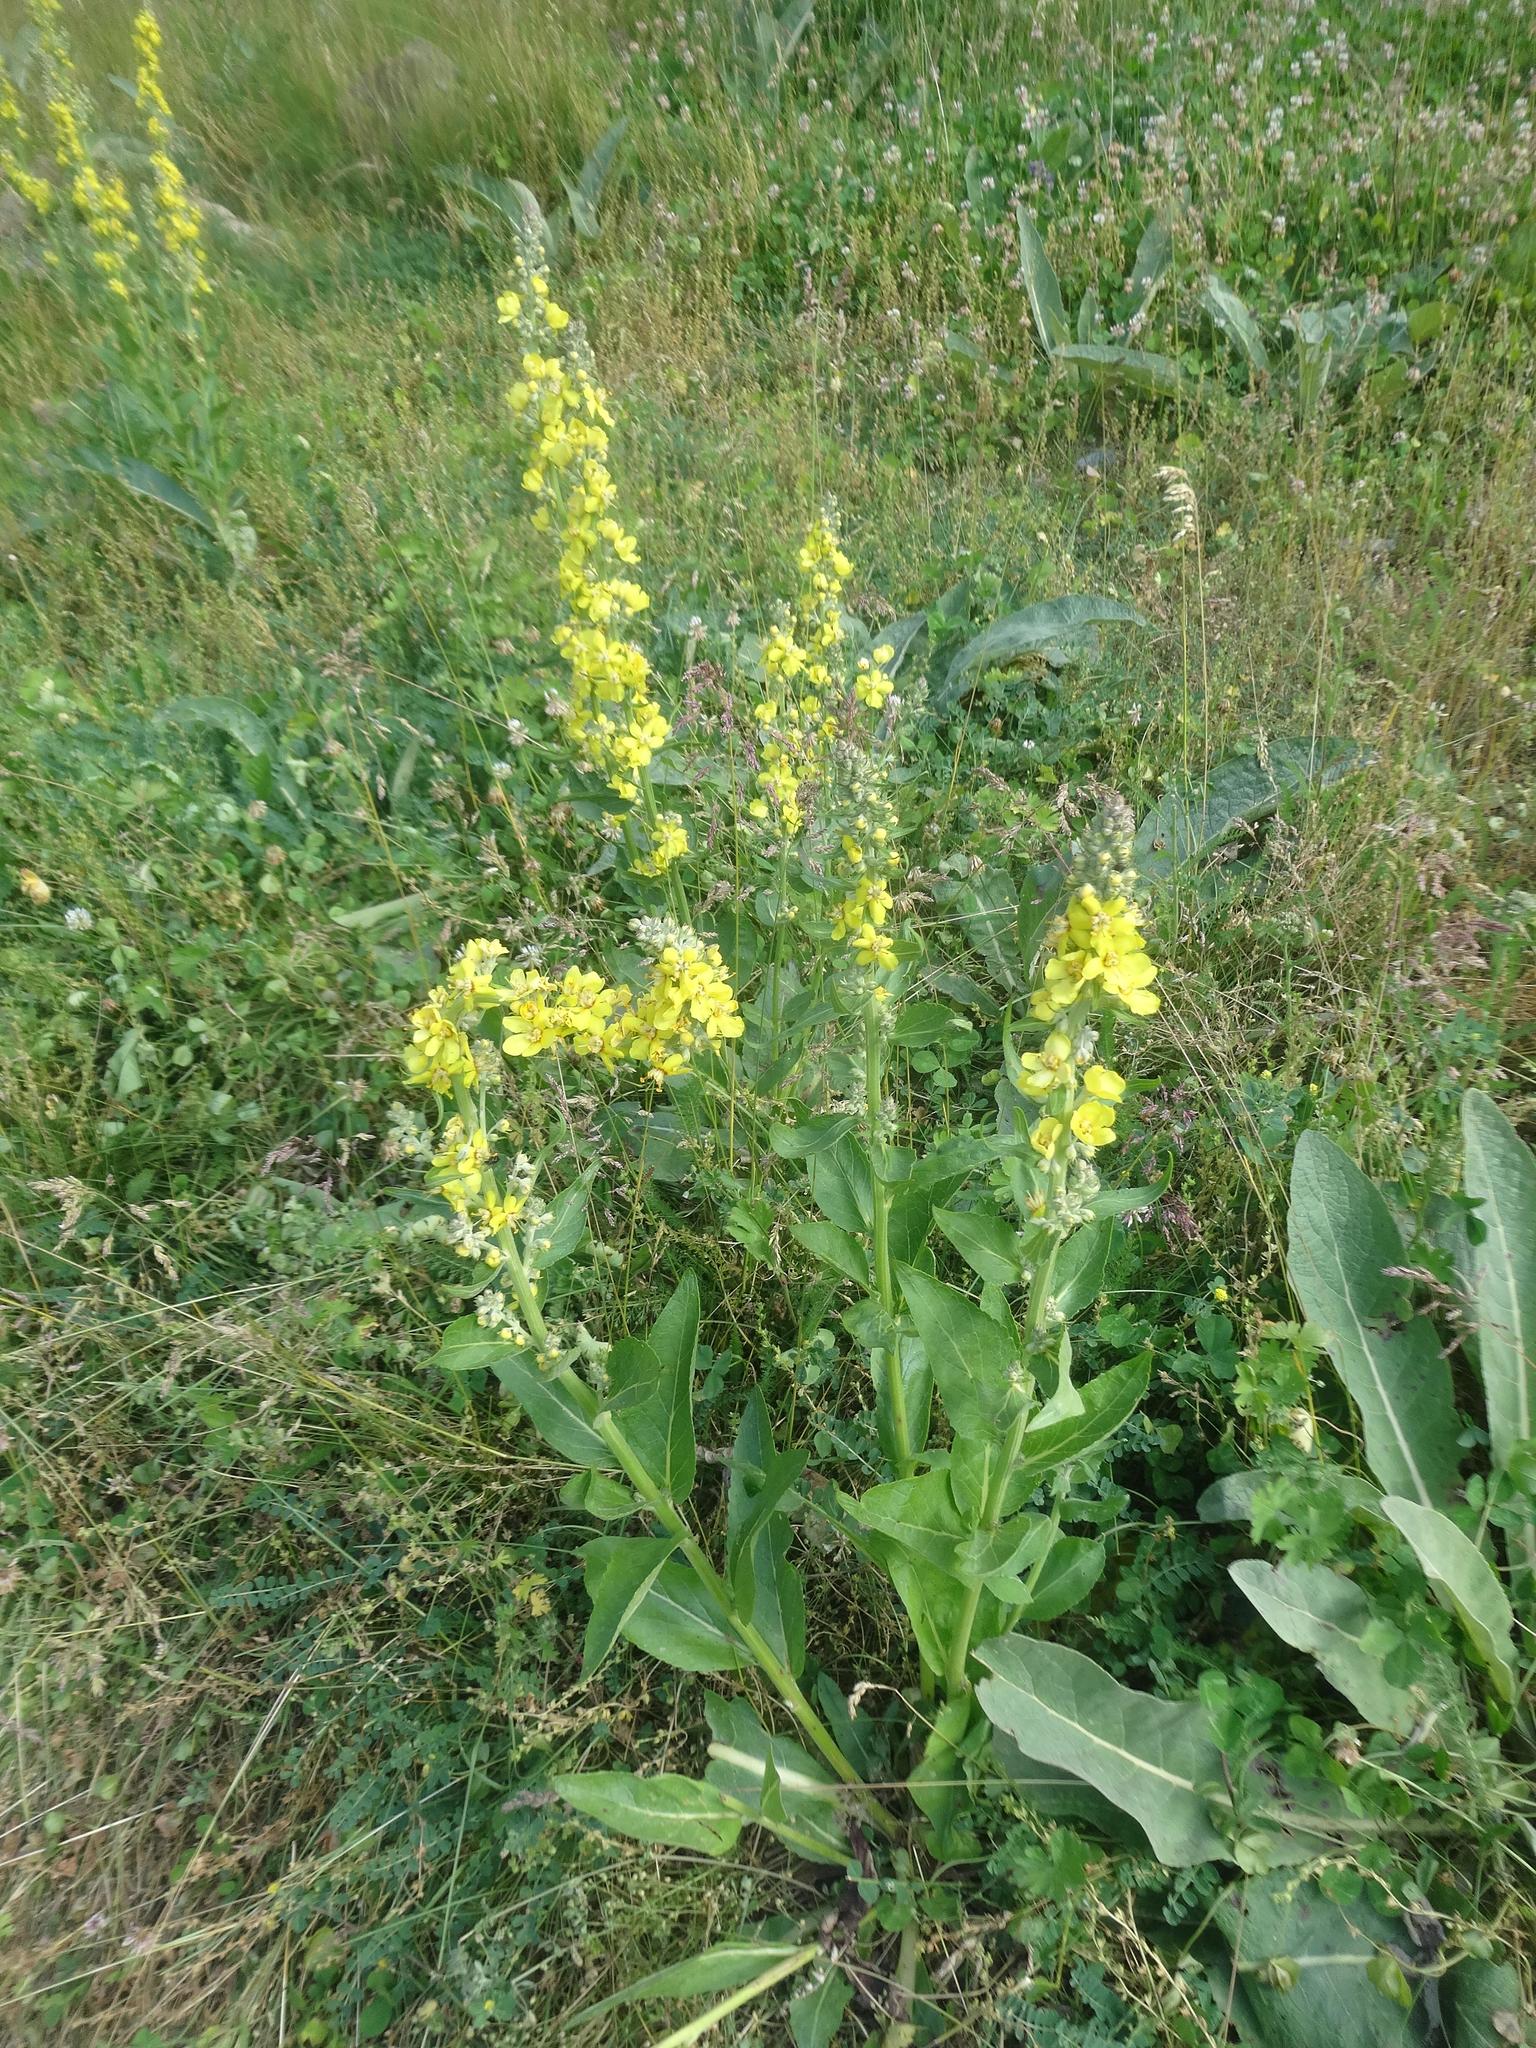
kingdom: Plantae
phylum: Tracheophyta
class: Magnoliopsida
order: Lamiales
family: Scrophulariaceae
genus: Verbascum
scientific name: Verbascum lychnitis
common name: White mullein
